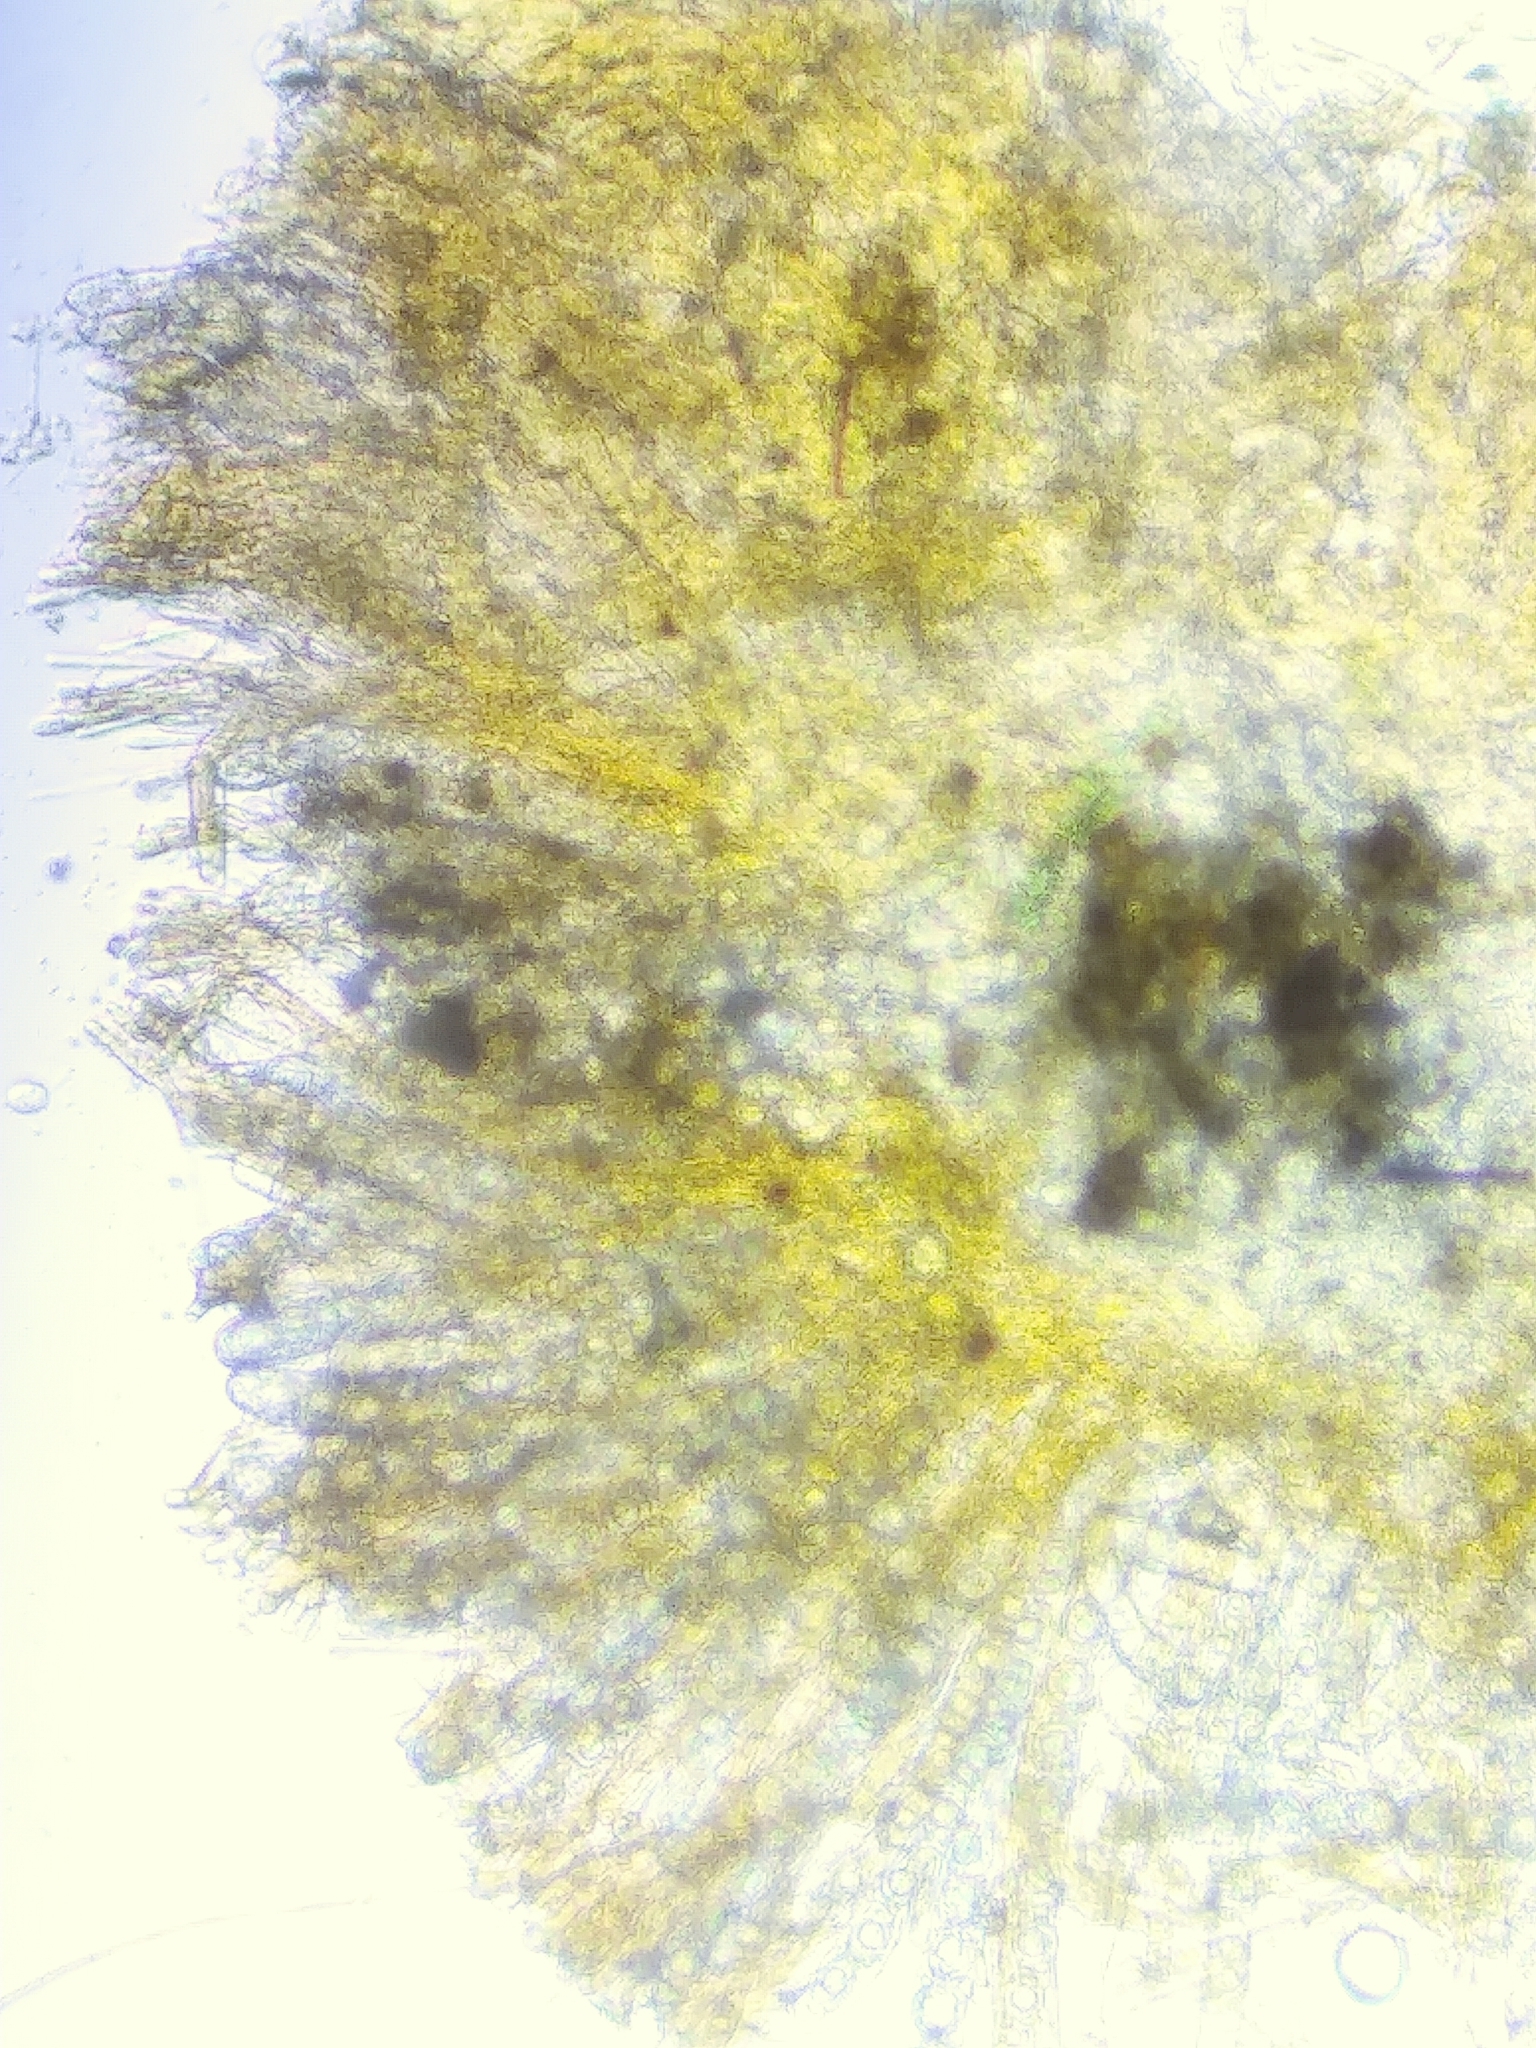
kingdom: Fungi
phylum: Ascomycota
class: Pezizomycetes
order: Pezizales
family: Pyronemataceae
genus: Lamprospora
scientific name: Lamprospora crechqueraultii
